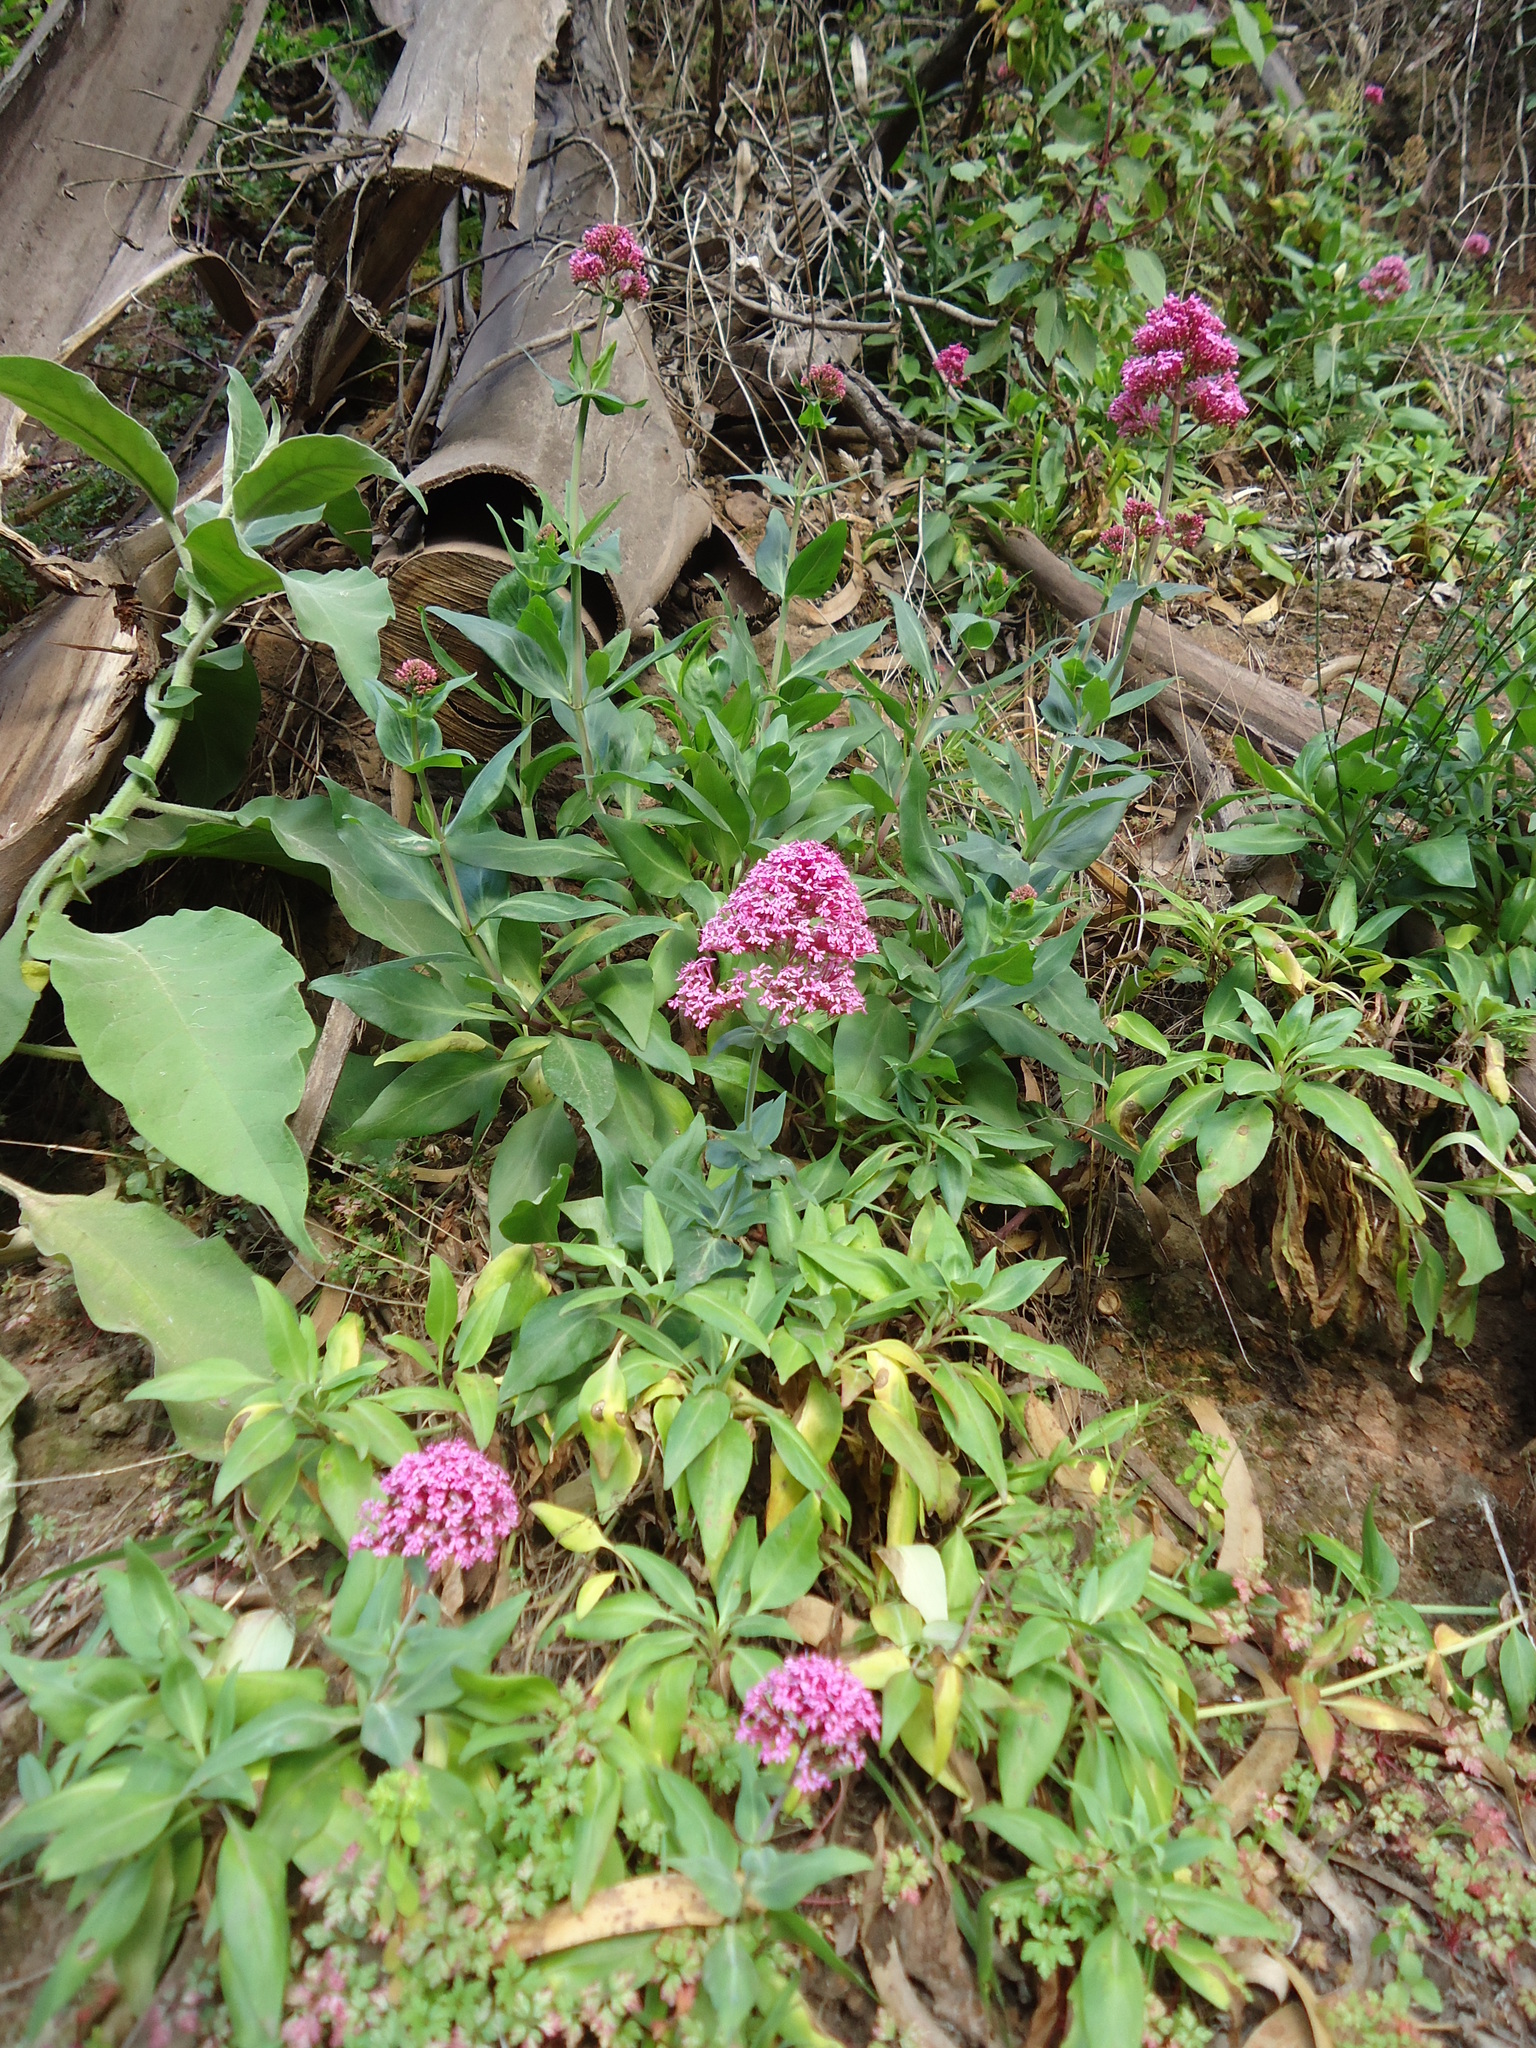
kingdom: Plantae
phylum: Tracheophyta
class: Magnoliopsida
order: Dipsacales
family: Caprifoliaceae
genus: Centranthus
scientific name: Centranthus ruber
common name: Red valerian
